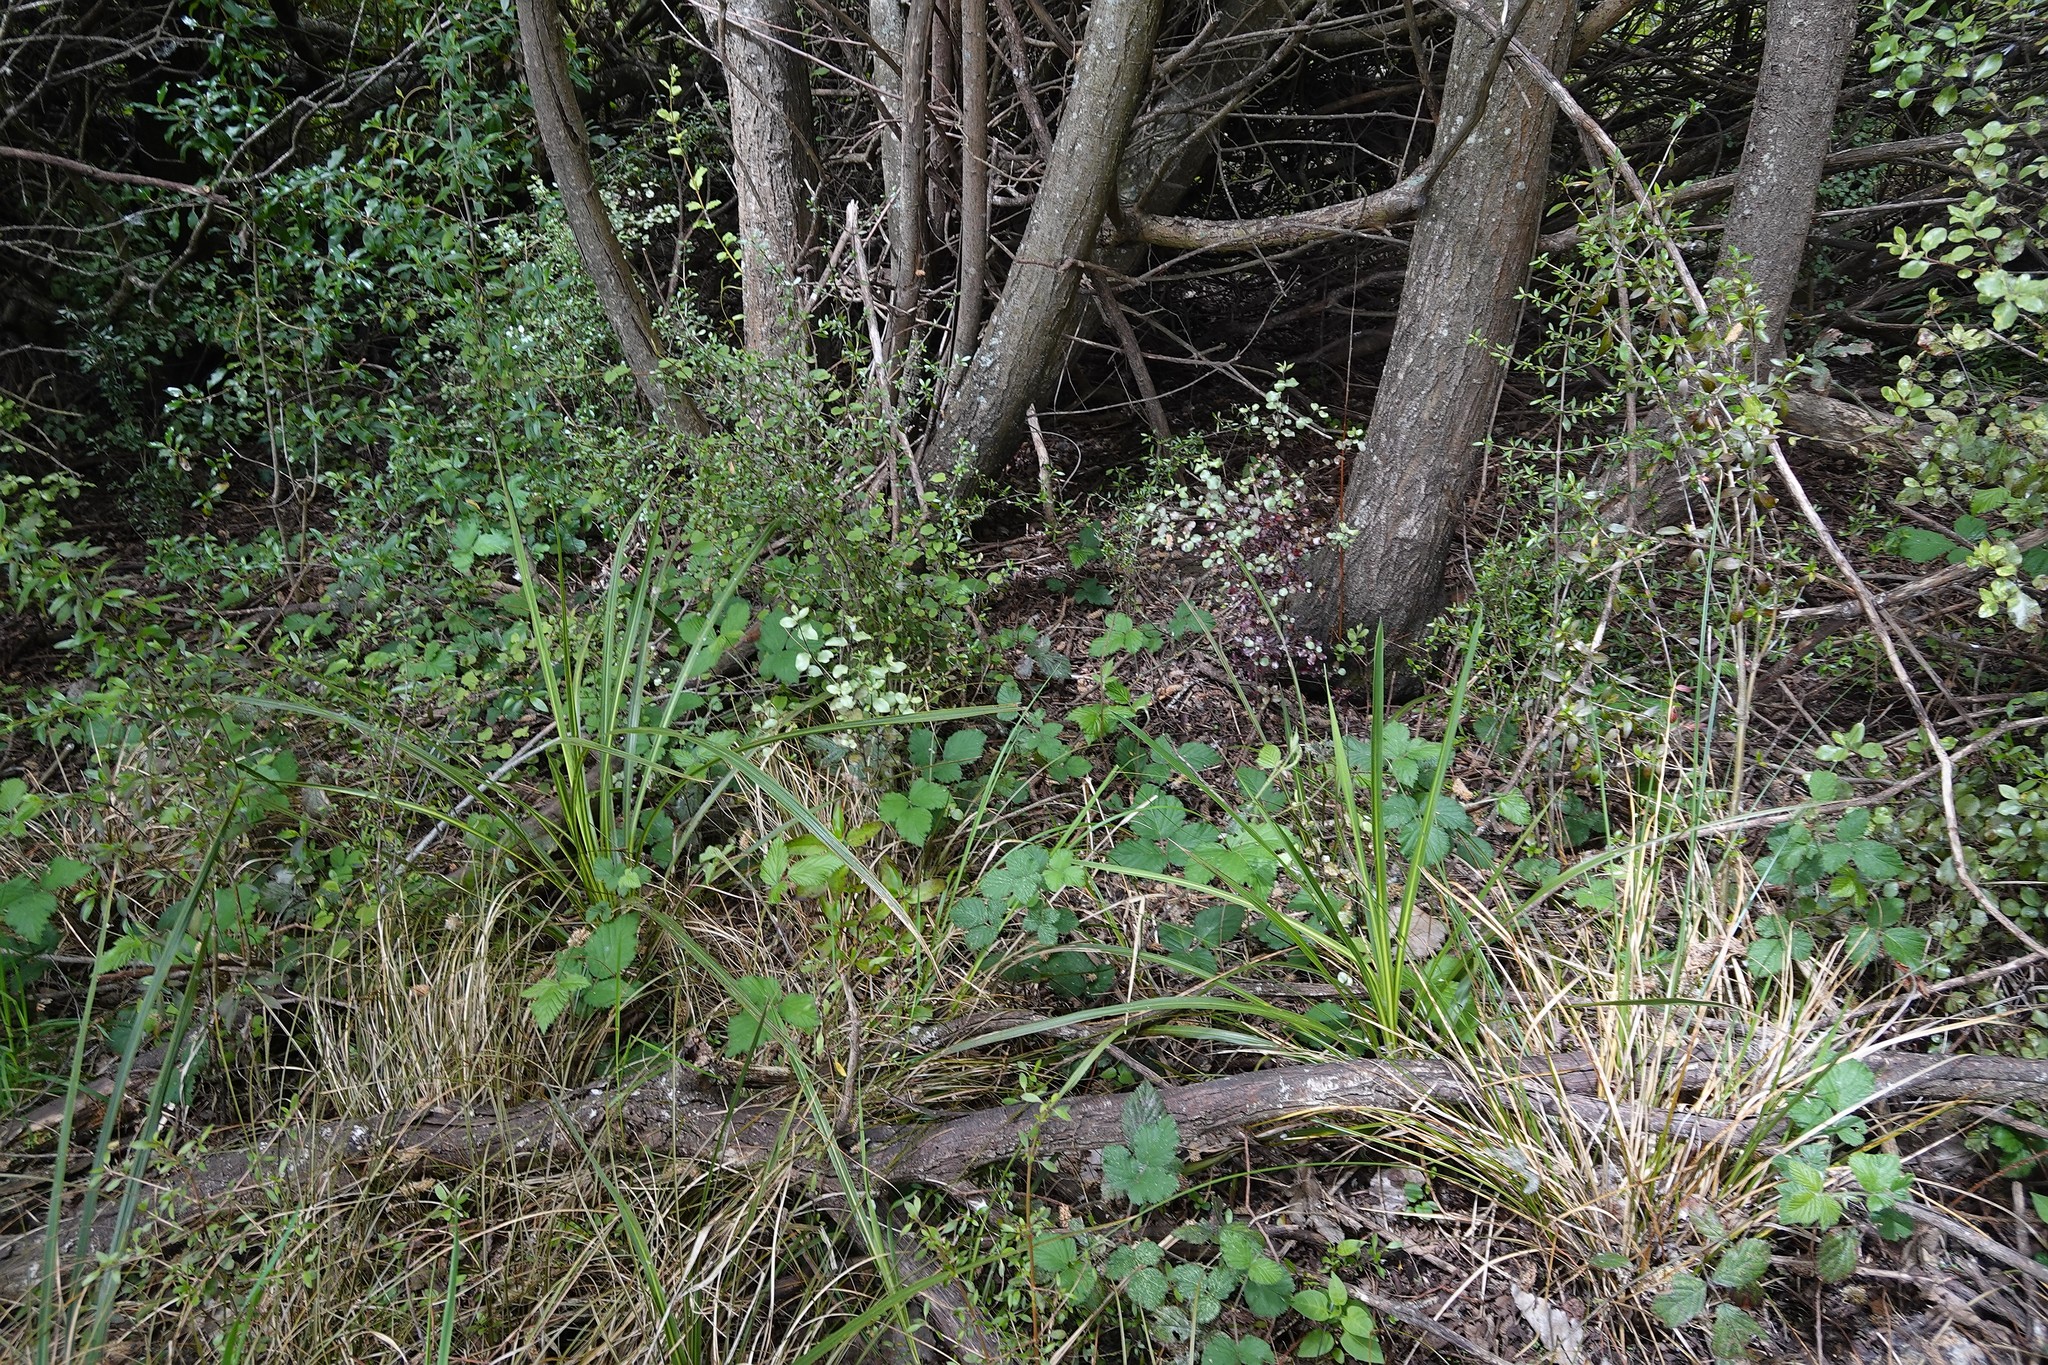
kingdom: Plantae
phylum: Tracheophyta
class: Liliopsida
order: Asparagales
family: Asparagaceae
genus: Cordyline
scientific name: Cordyline australis
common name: Cabbage-palm
